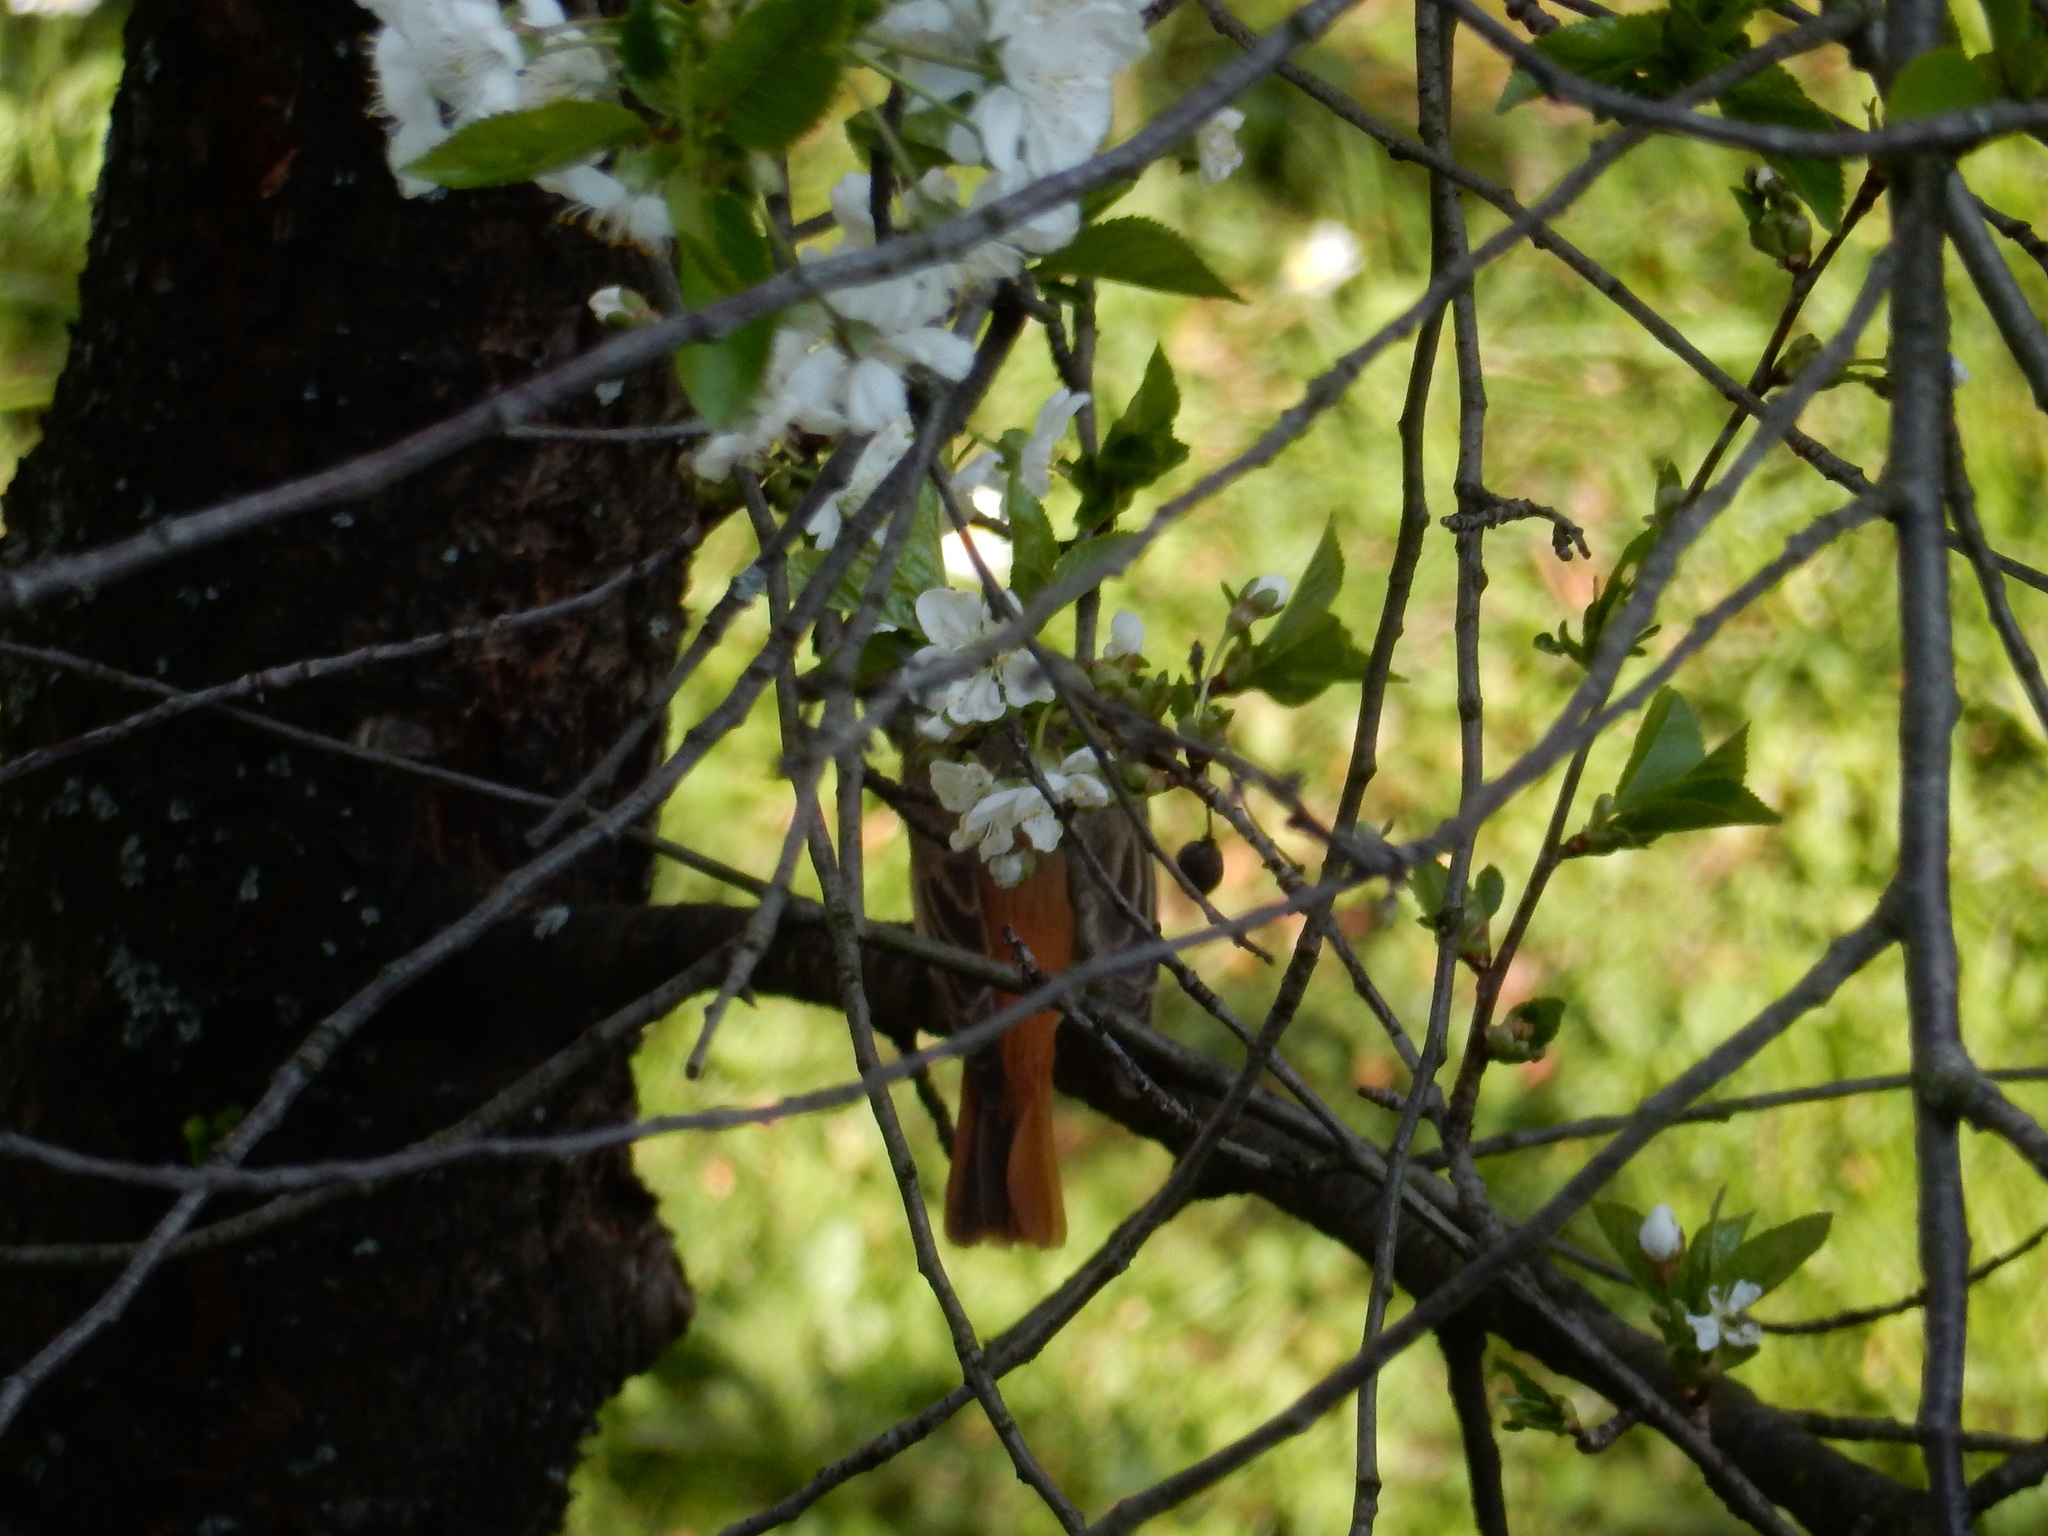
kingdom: Animalia
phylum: Chordata
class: Aves
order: Passeriformes
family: Muscicapidae
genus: Phoenicurus
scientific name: Phoenicurus phoenicurus
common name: Common redstart
